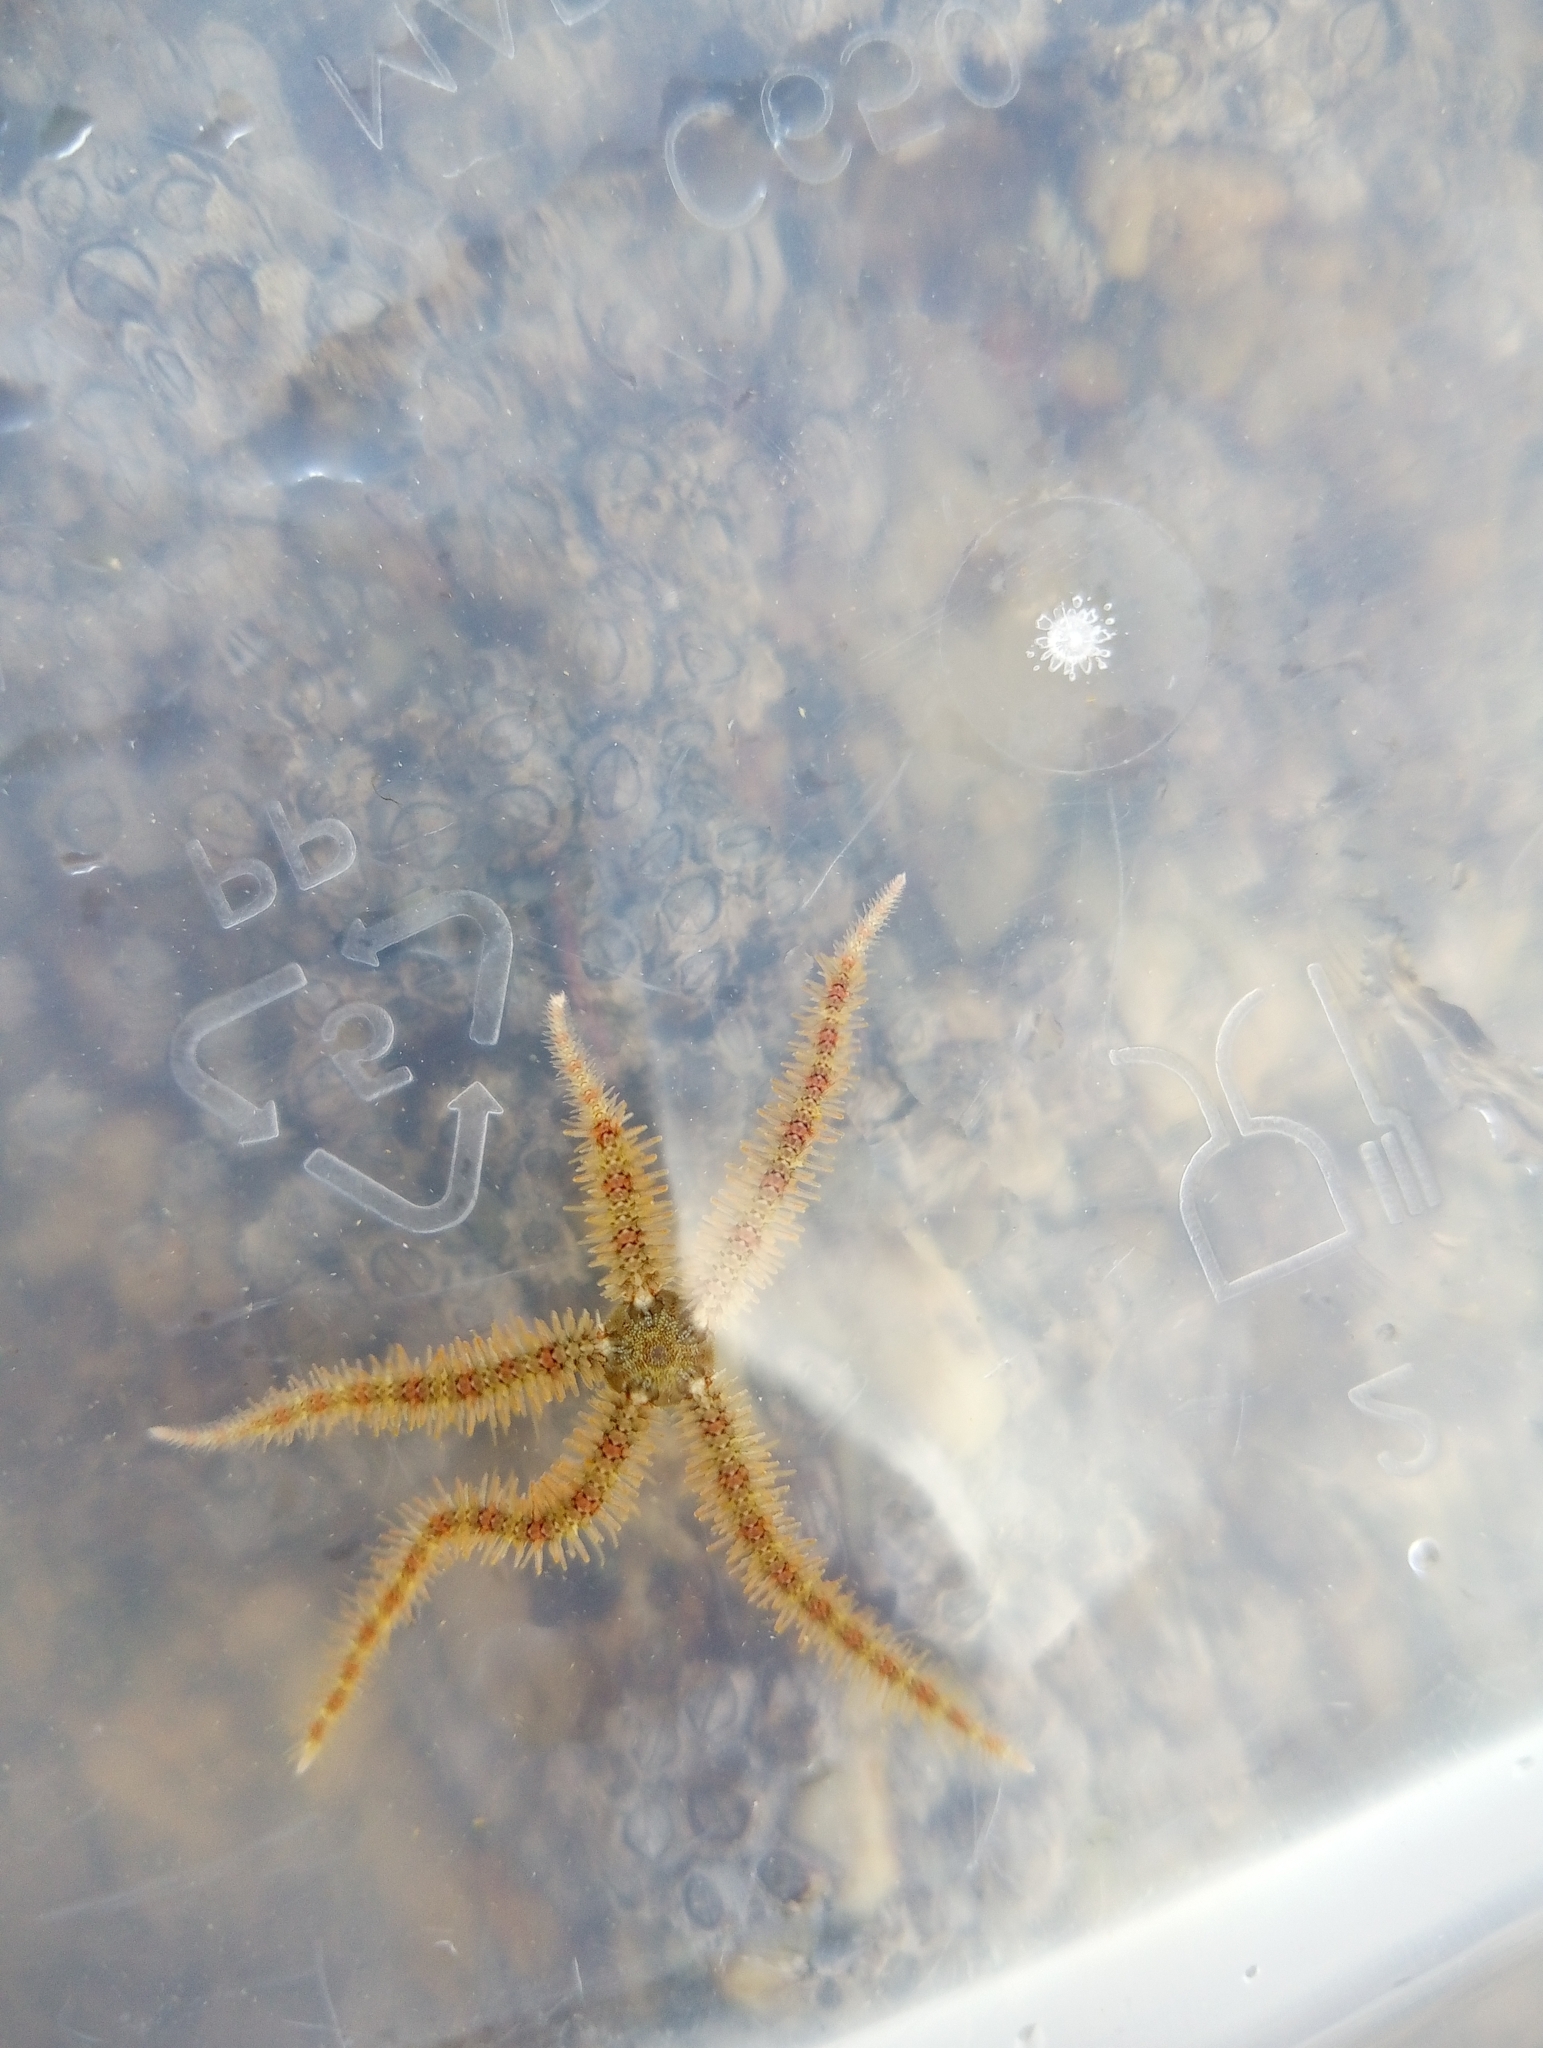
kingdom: Animalia
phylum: Echinodermata
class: Ophiuroidea
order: Amphilepidida
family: Ophiotrichidae
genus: Ophiothrix
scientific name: Ophiothrix fragilis
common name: Common brittlestar
